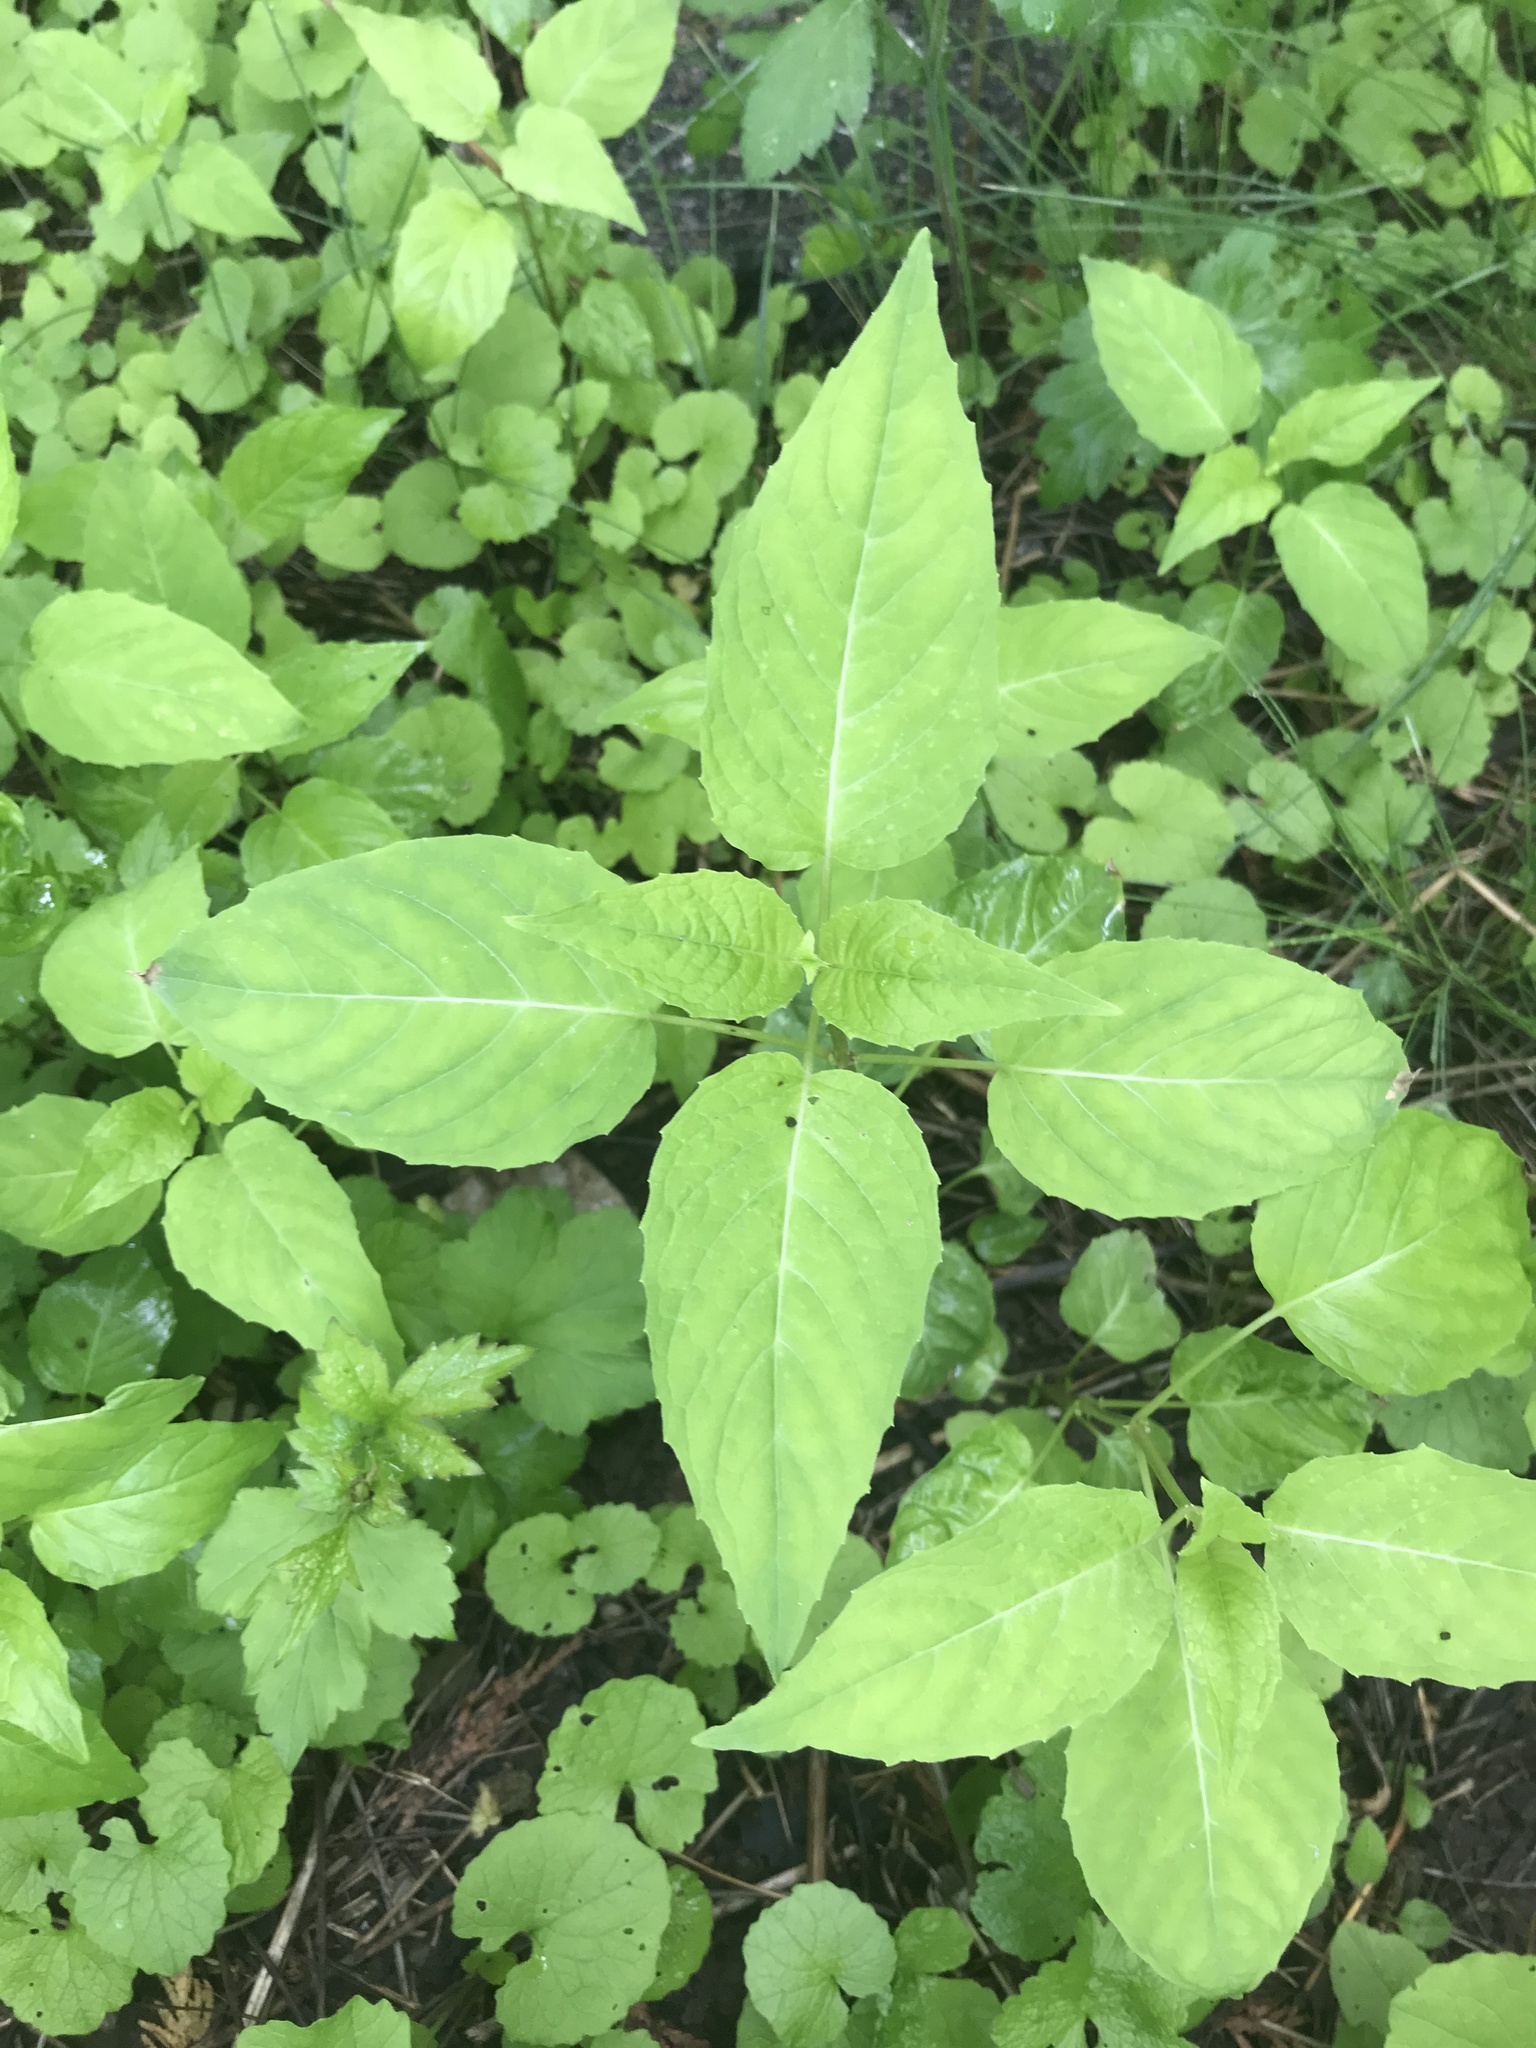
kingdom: Plantae
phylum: Tracheophyta
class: Magnoliopsida
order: Myrtales
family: Onagraceae
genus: Circaea
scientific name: Circaea canadensis
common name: Broad-leaved enchanter's nightshade
